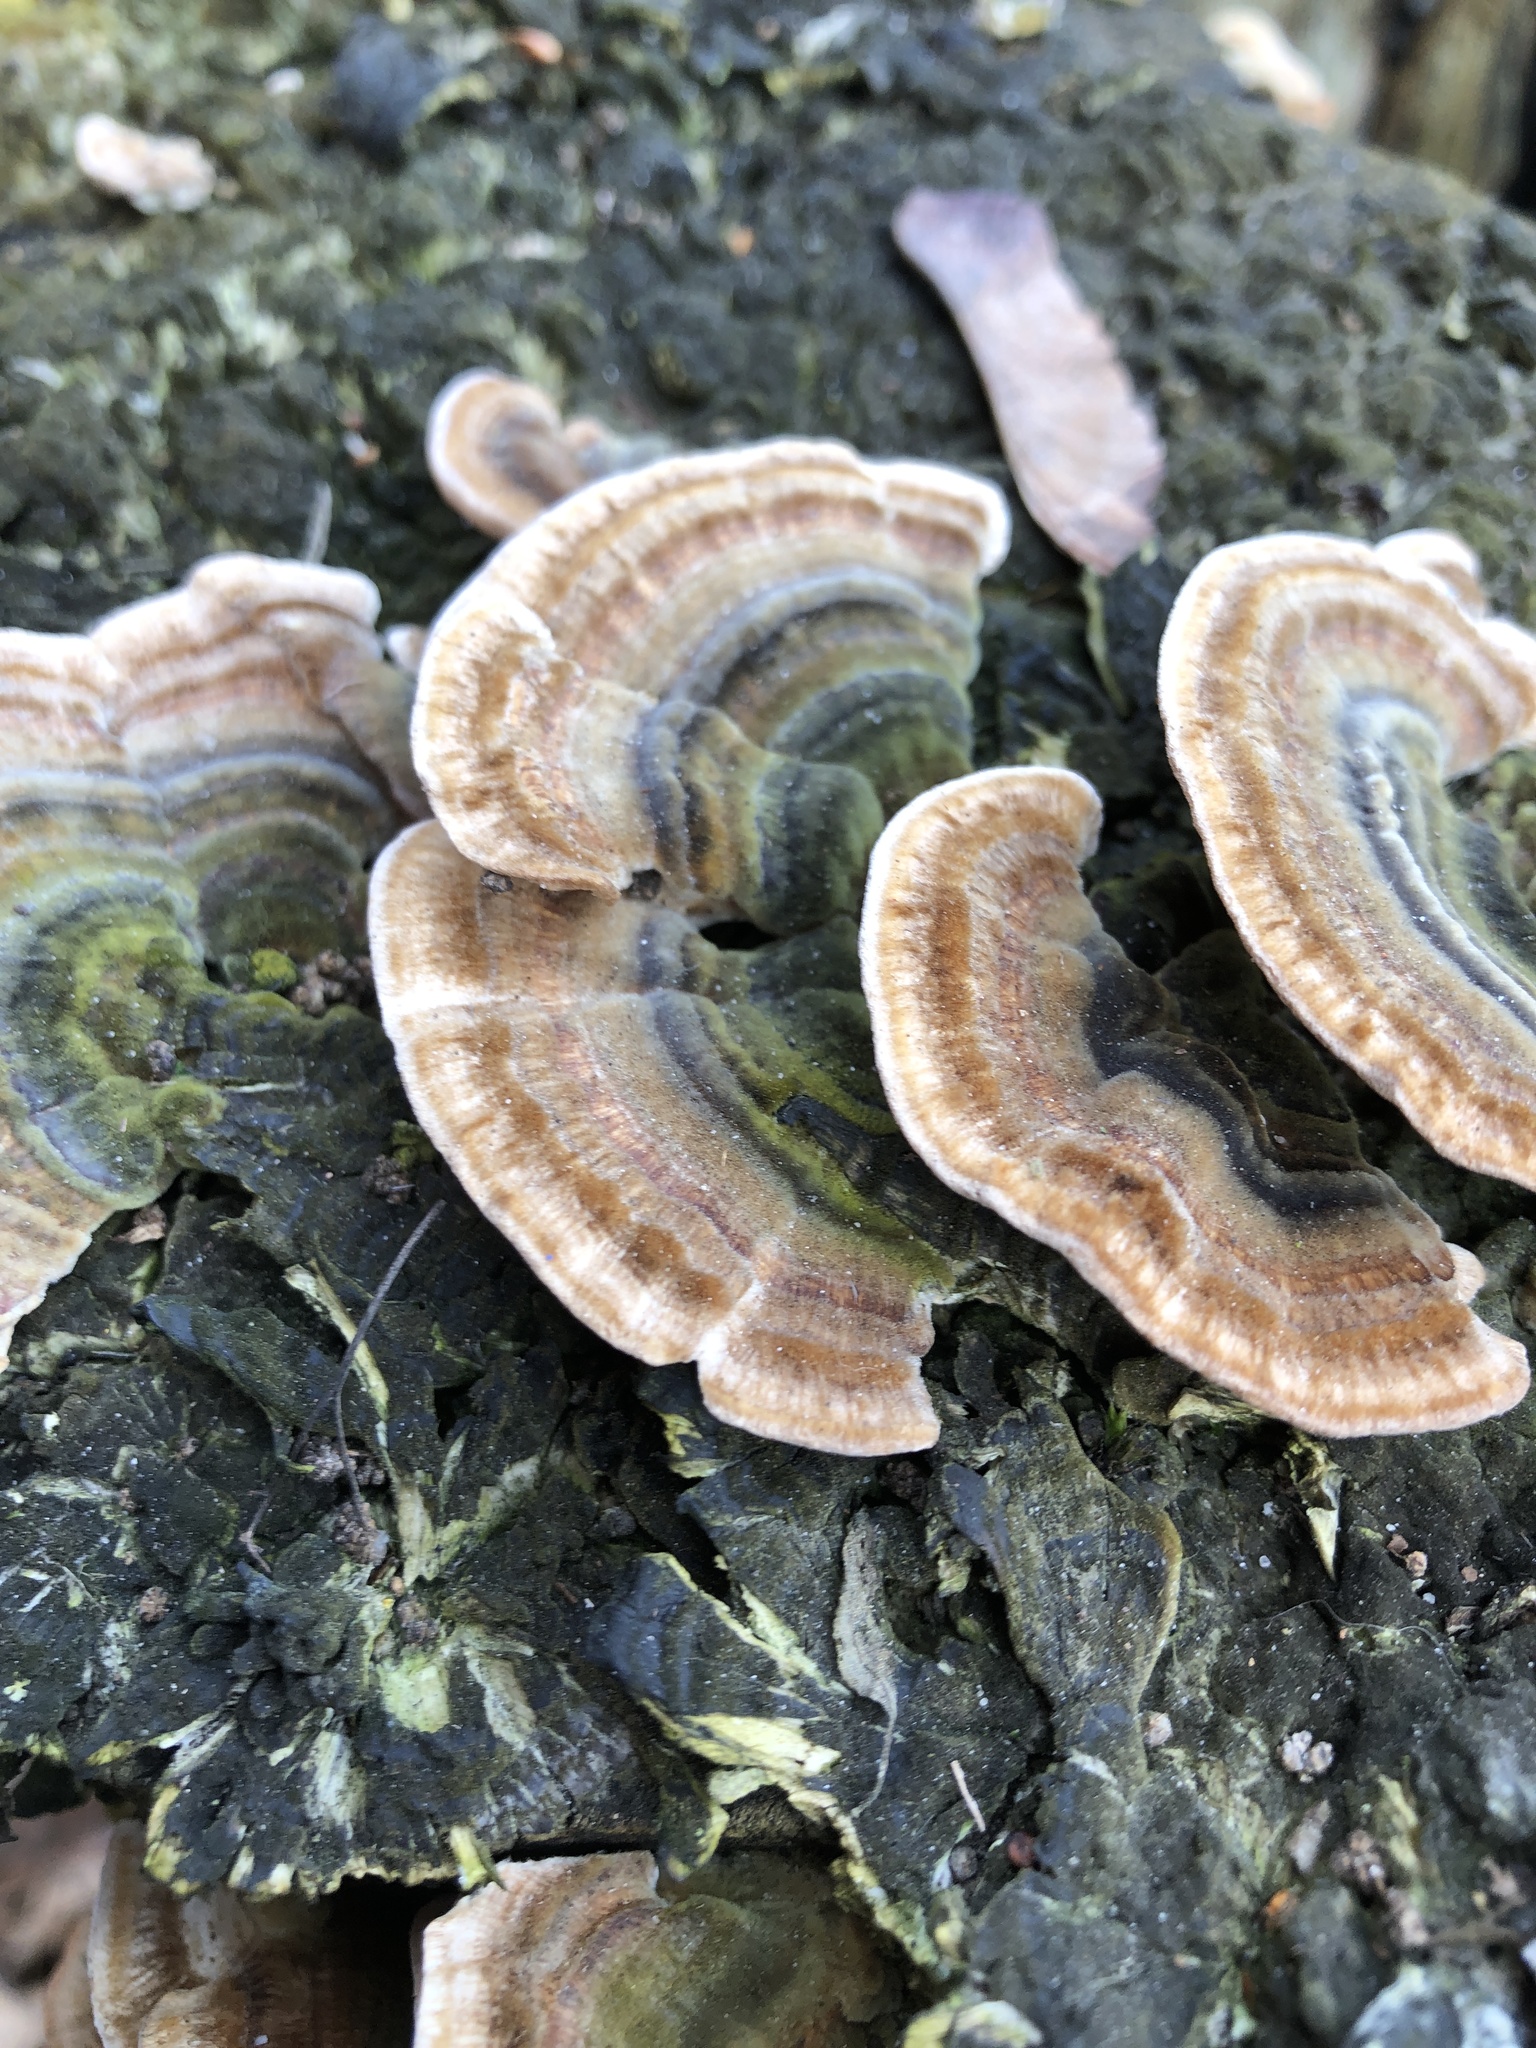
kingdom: Fungi
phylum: Basidiomycota
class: Agaricomycetes
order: Polyporales
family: Polyporaceae
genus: Trametes
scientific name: Trametes versicolor
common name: Turkeytail
